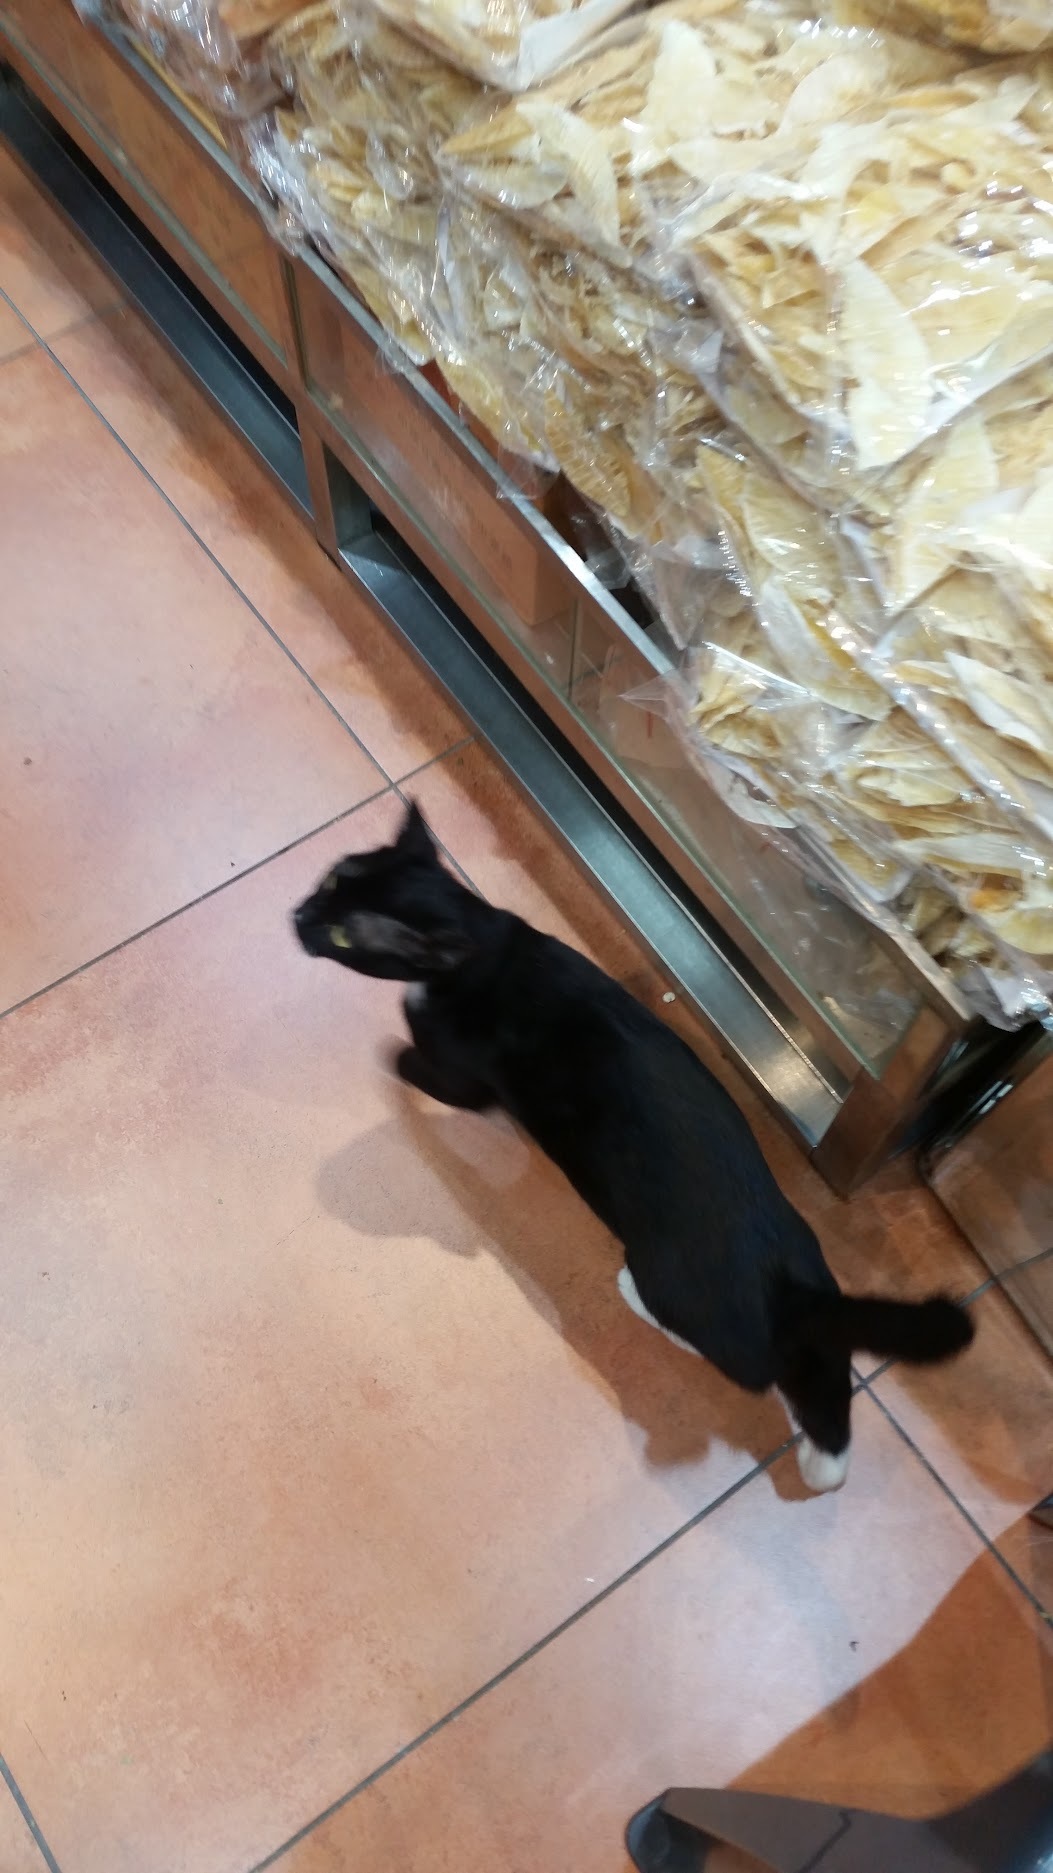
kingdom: Animalia
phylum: Chordata
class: Mammalia
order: Carnivora
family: Felidae
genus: Felis
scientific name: Felis catus
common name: Domestic cat
